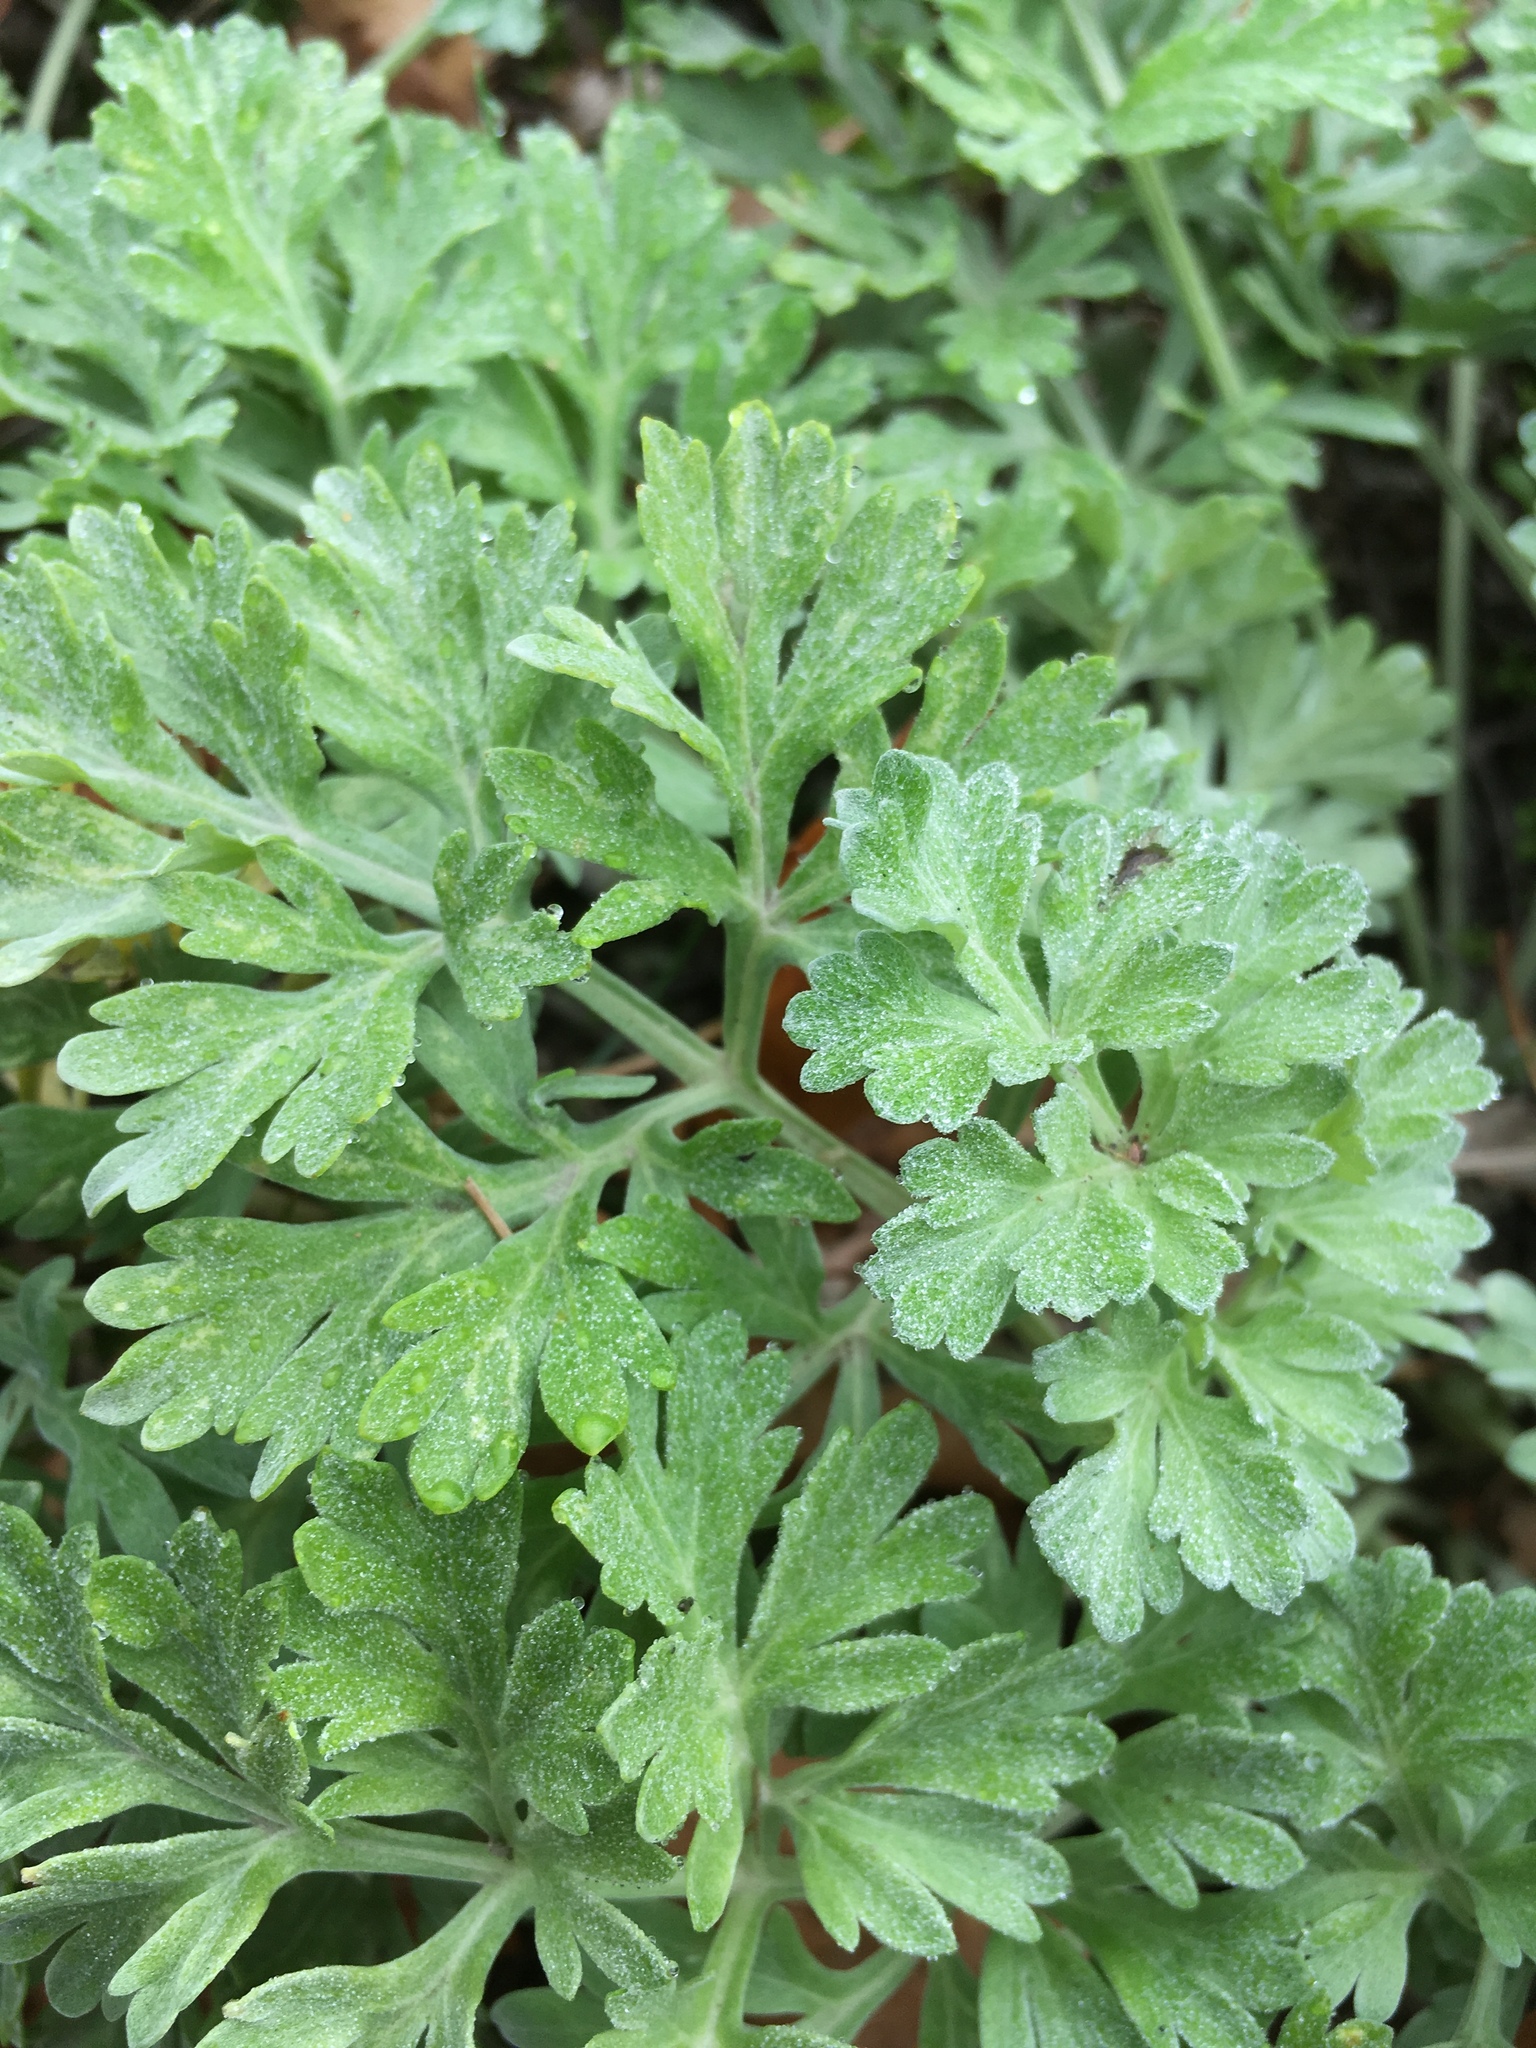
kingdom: Plantae
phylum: Tracheophyta
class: Magnoliopsida
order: Asterales
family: Asteraceae
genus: Artemisia
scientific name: Artemisia absinthium
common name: Wormwood
